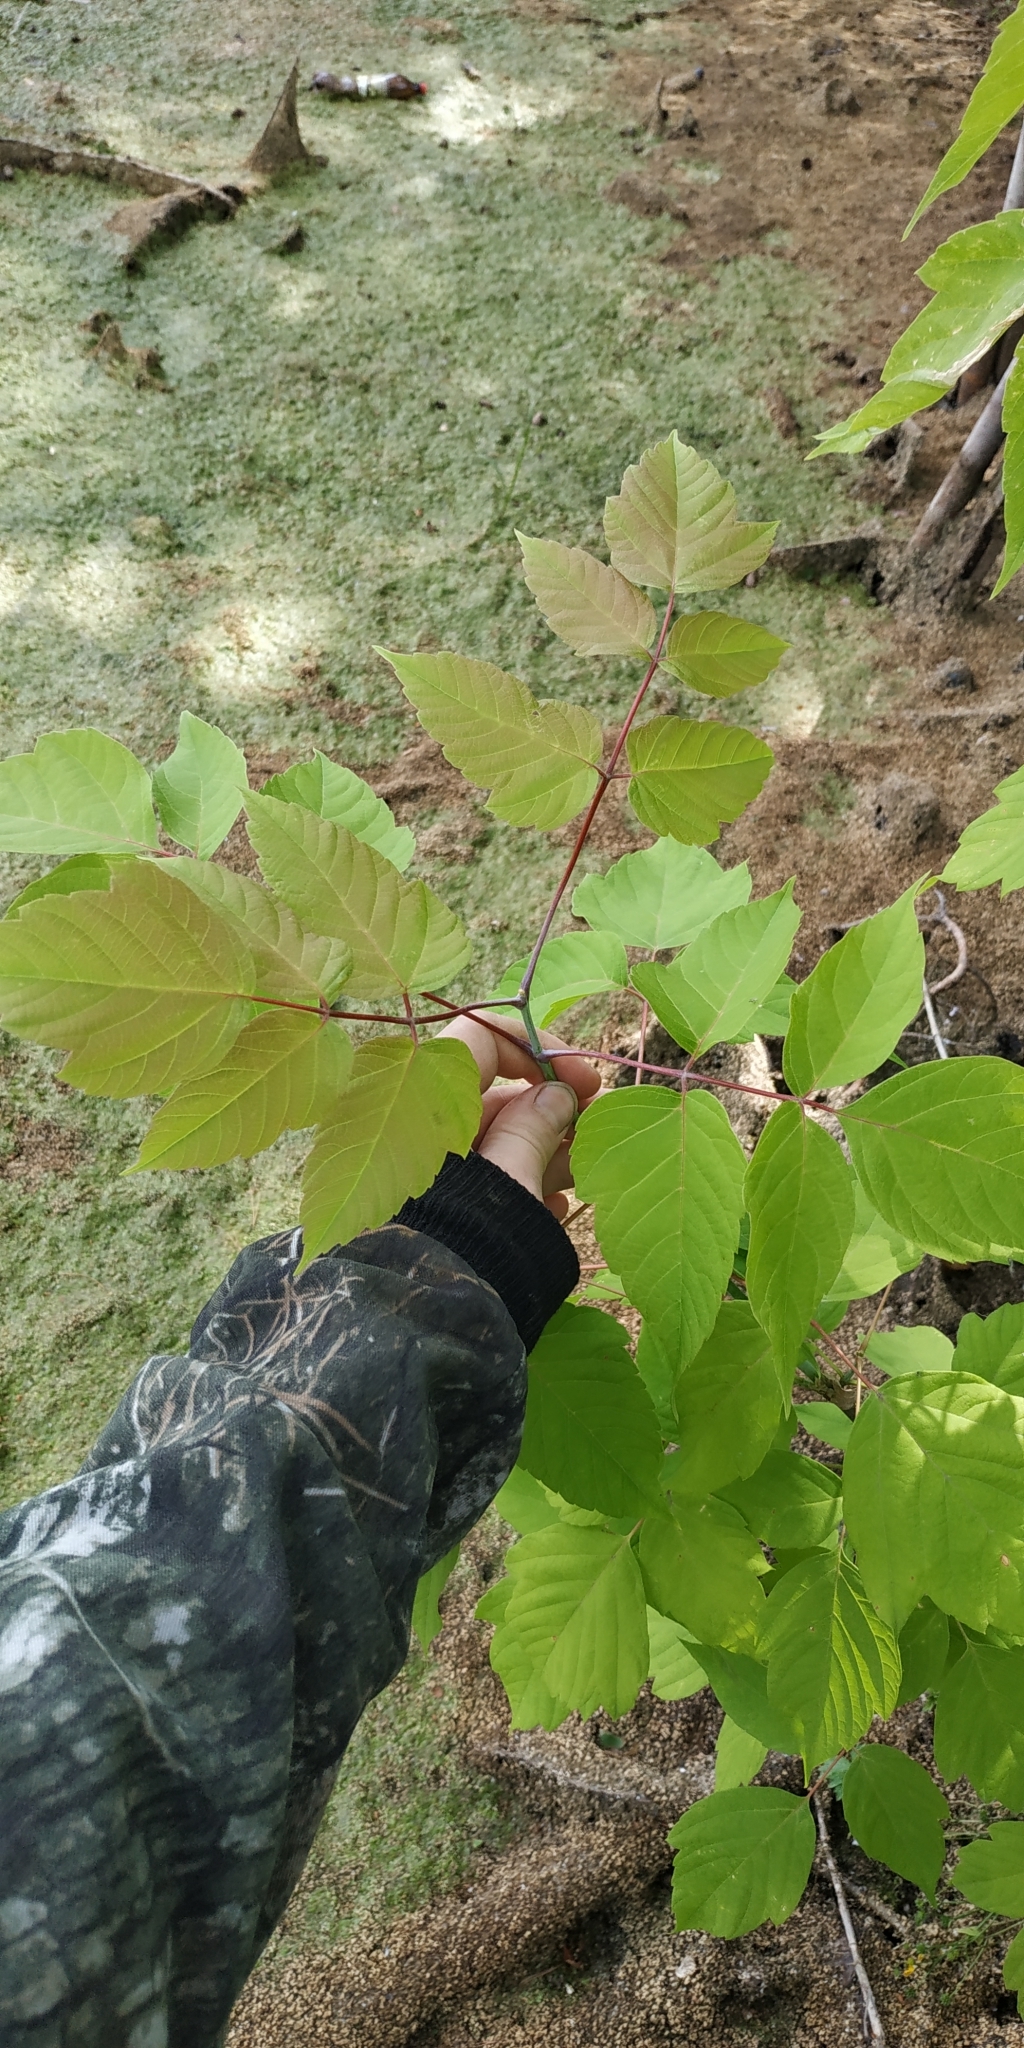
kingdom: Plantae
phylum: Tracheophyta
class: Magnoliopsida
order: Sapindales
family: Sapindaceae
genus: Acer
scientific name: Acer negundo
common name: Ashleaf maple
